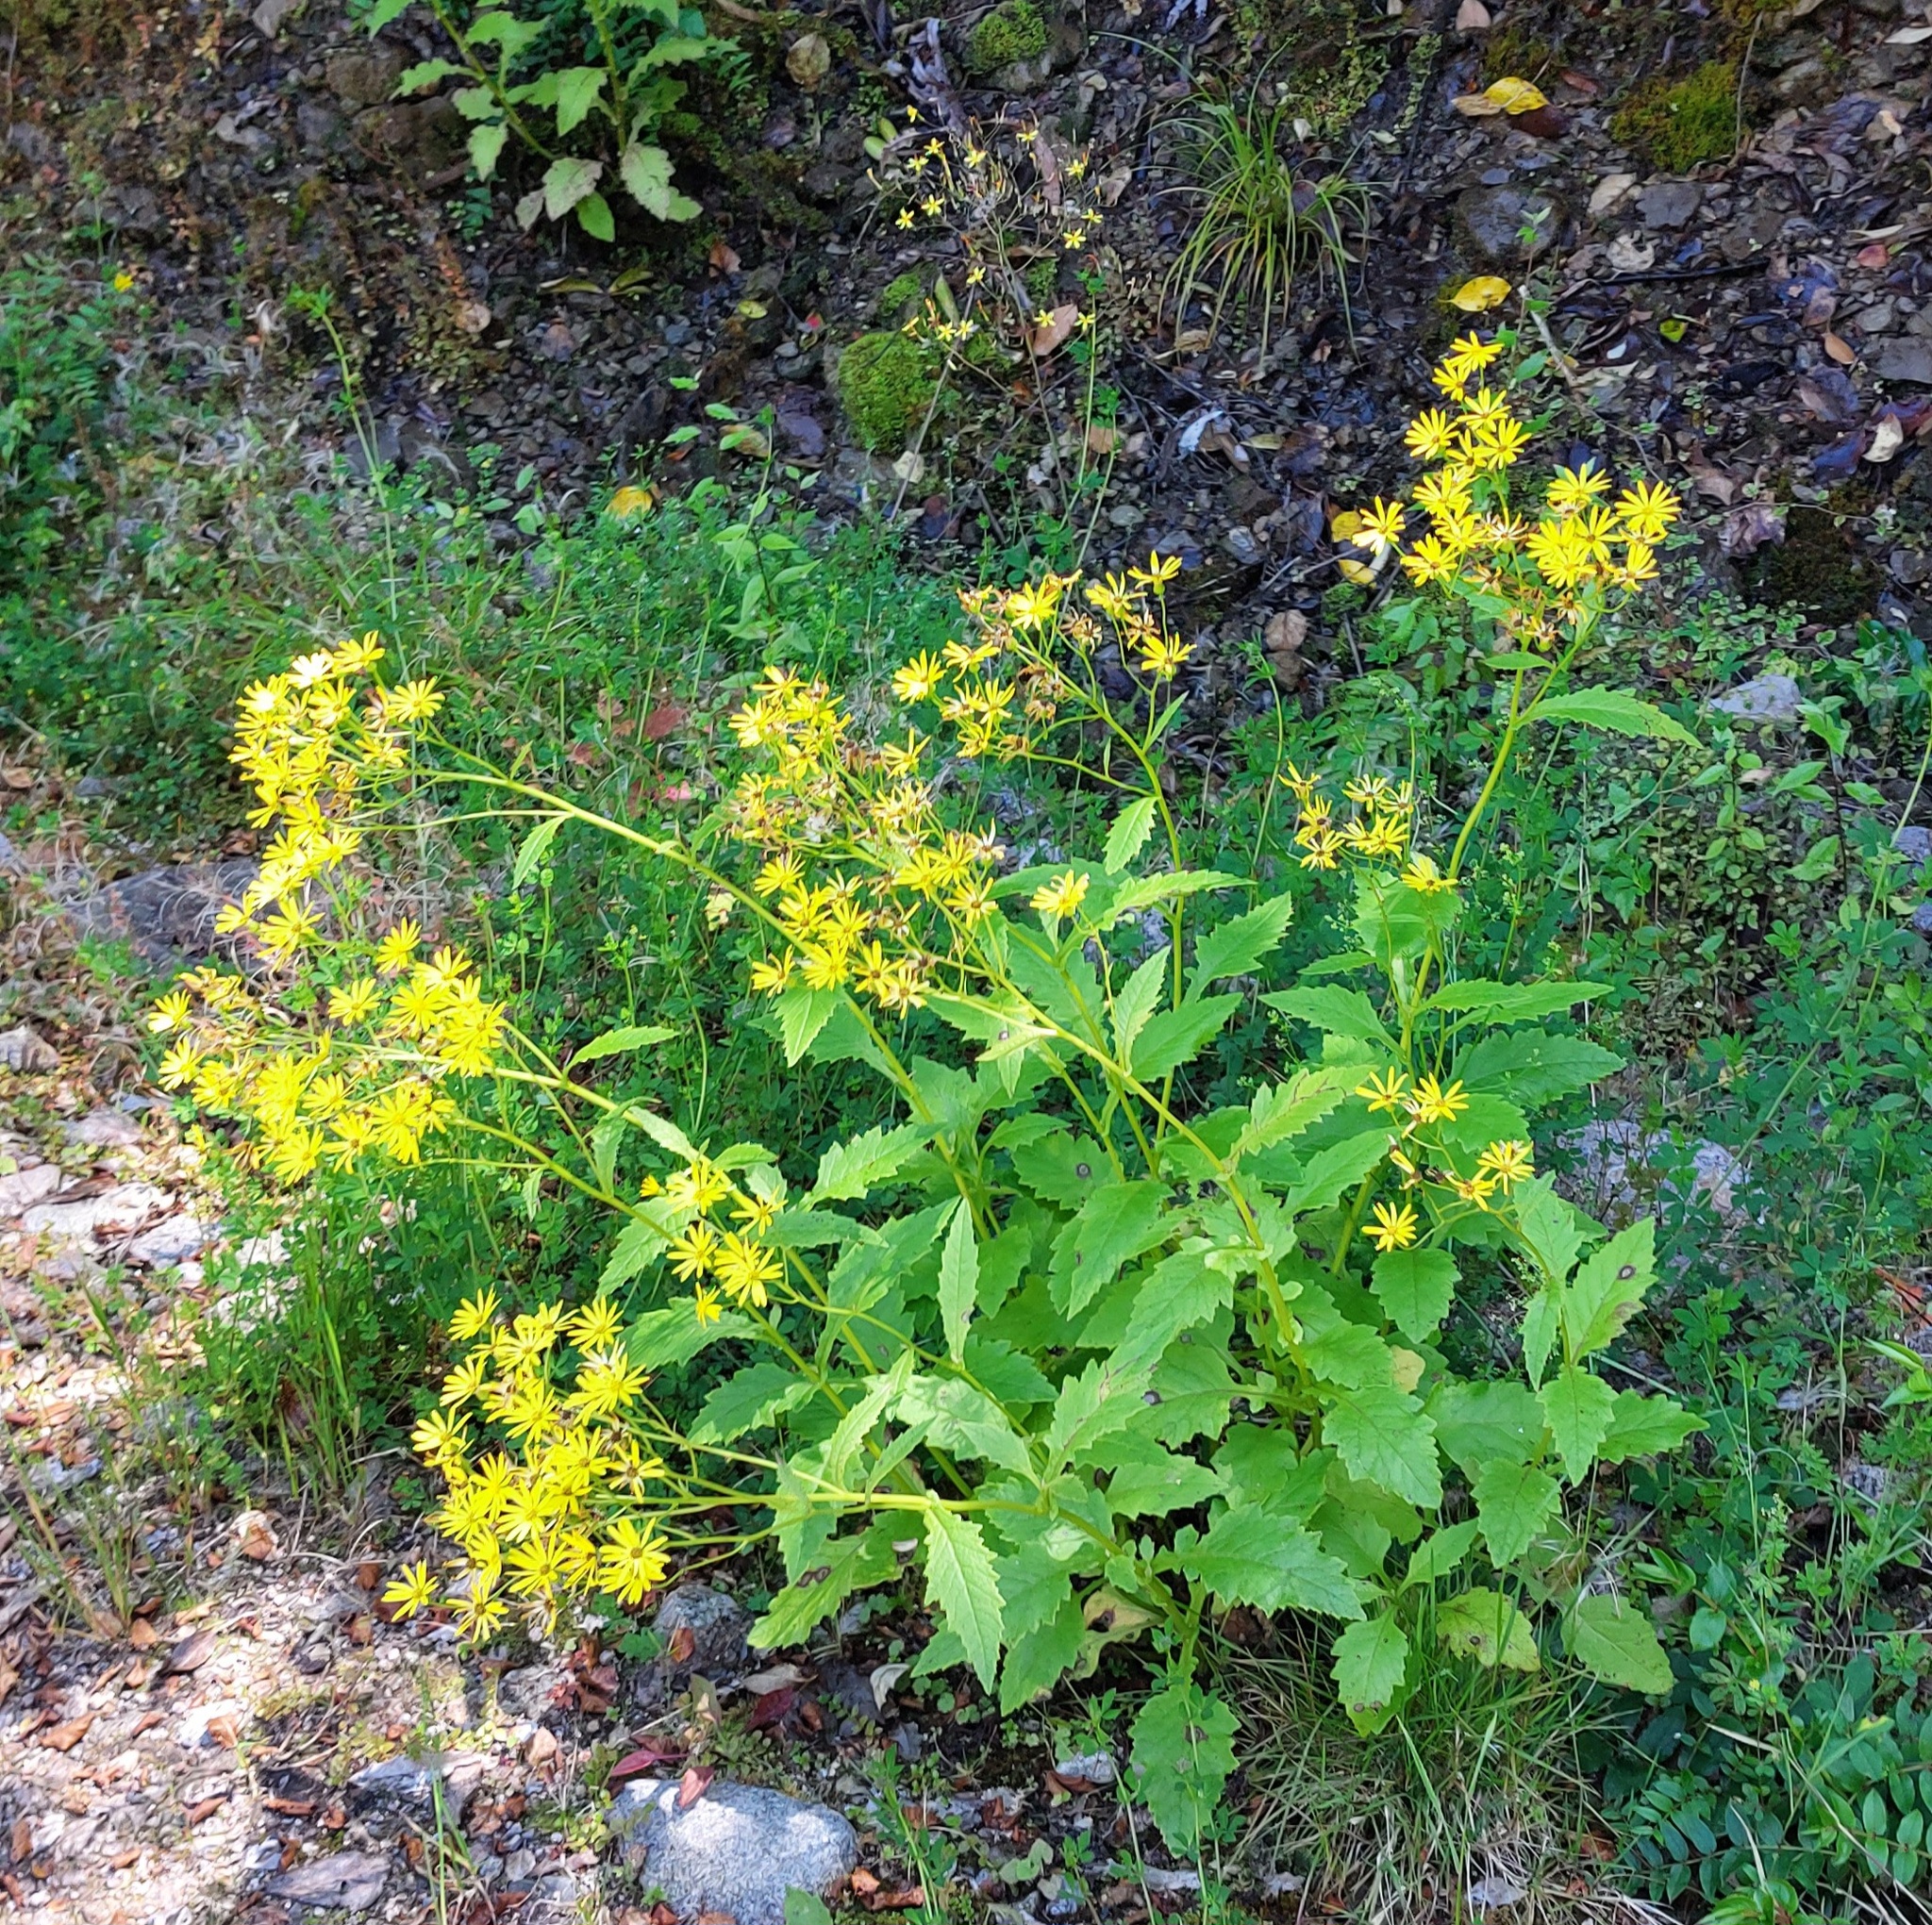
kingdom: Plantae
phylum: Tracheophyta
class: Magnoliopsida
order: Asterales
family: Asteraceae
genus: Senecio
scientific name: Senecio rufiglandulosus
